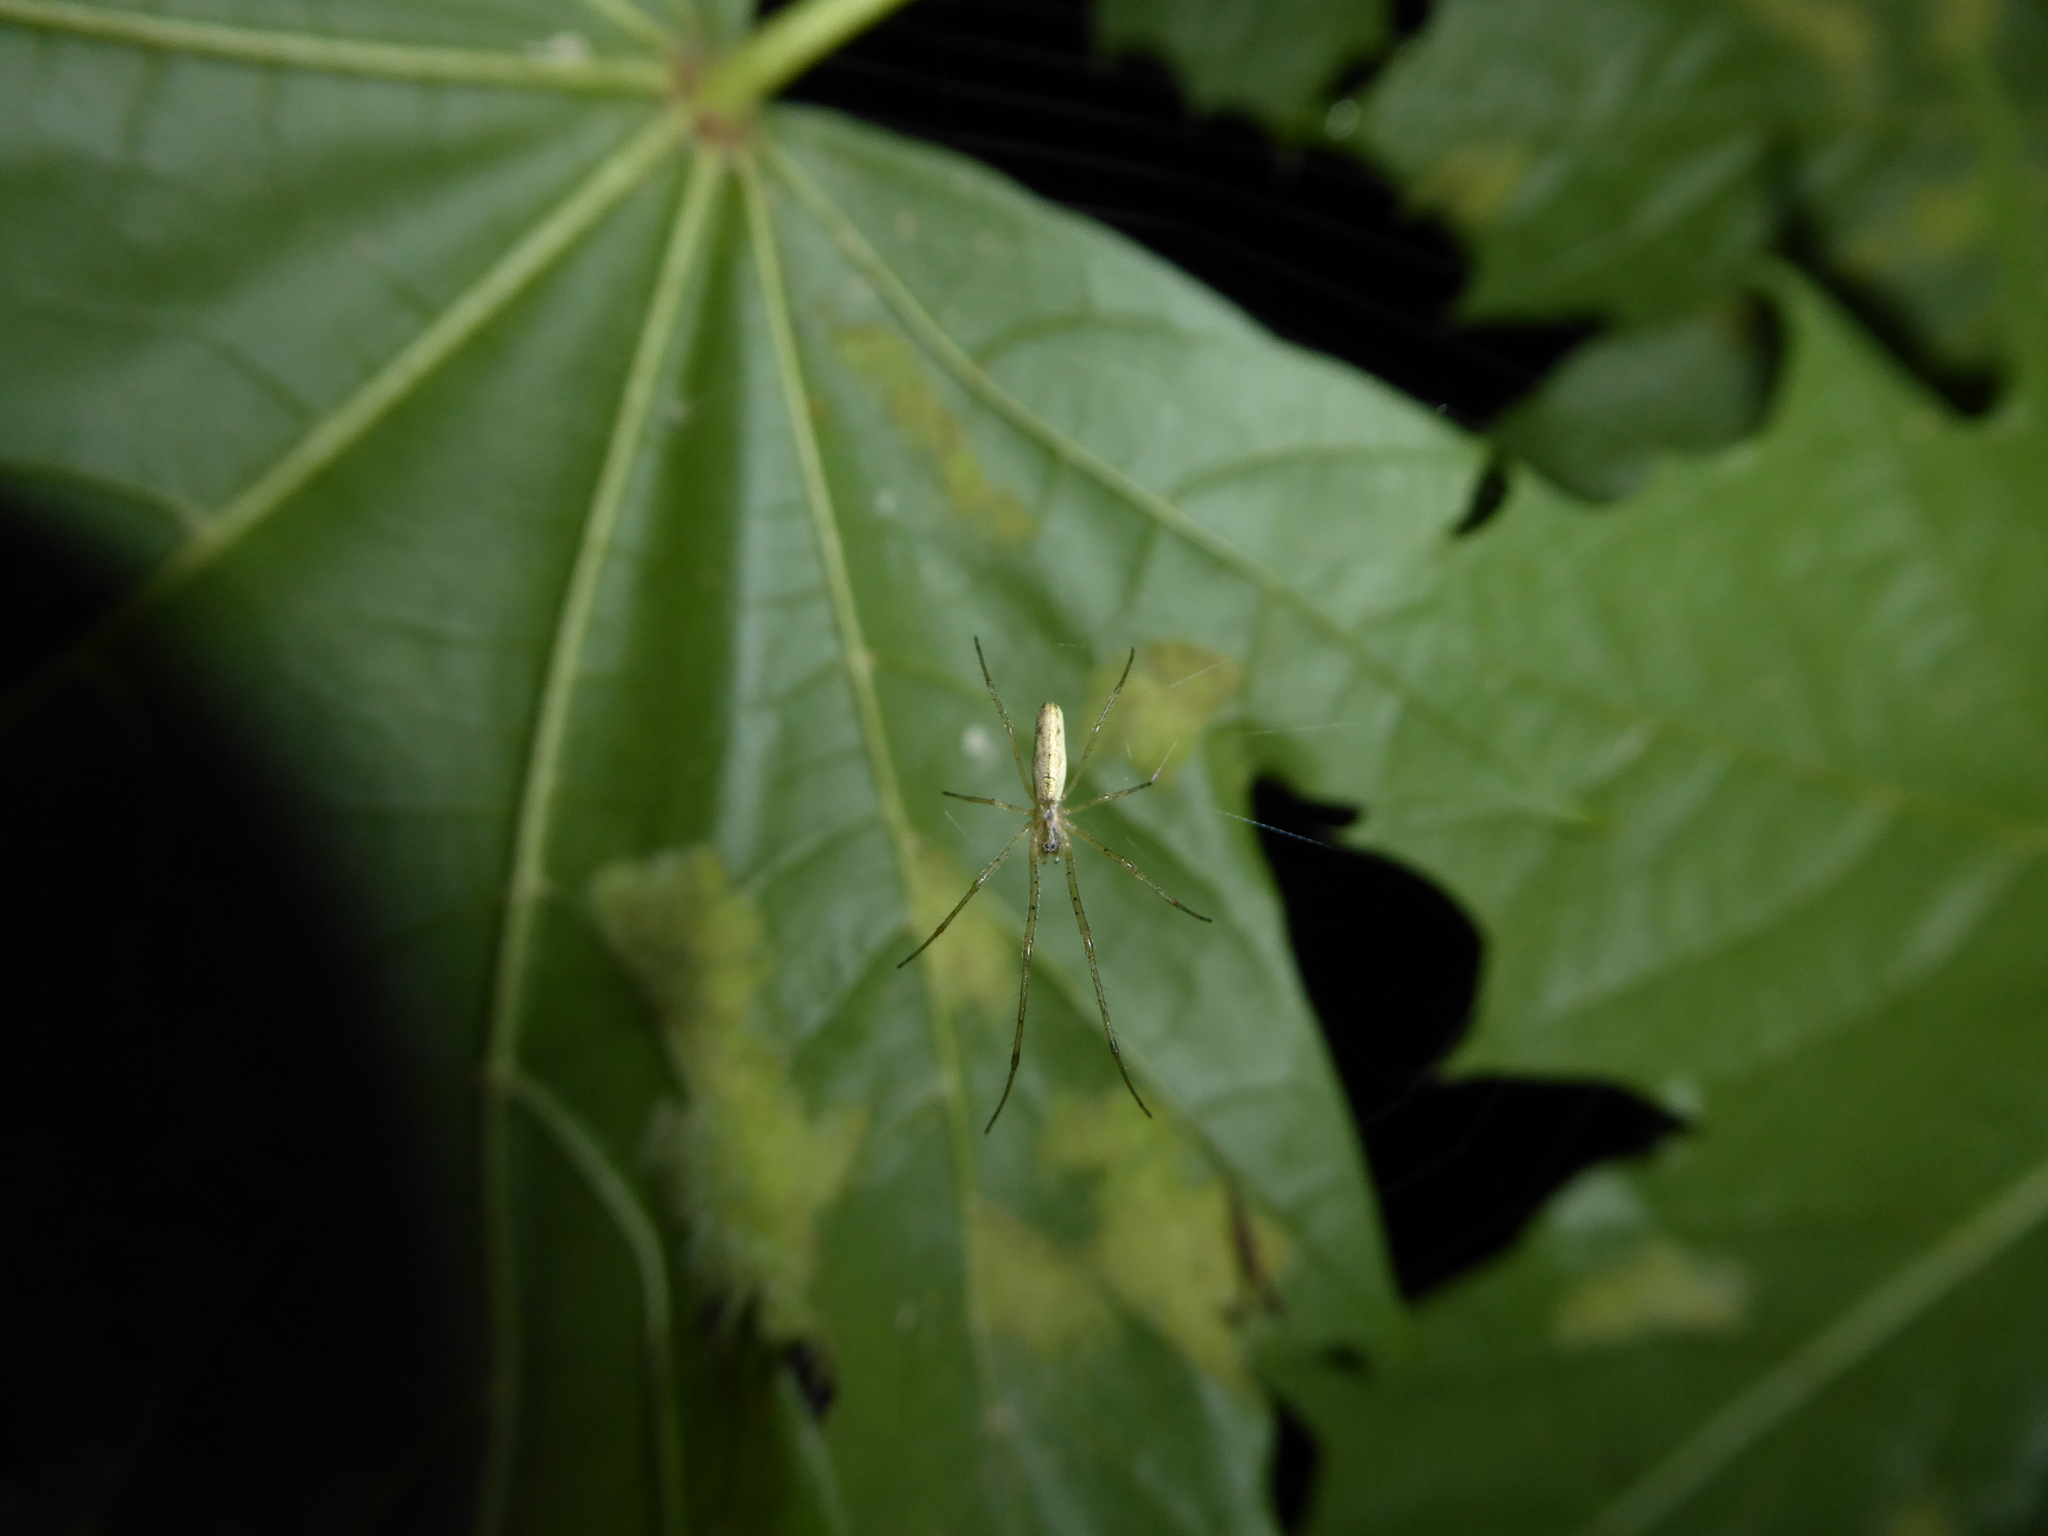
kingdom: Animalia
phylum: Arthropoda
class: Arachnida
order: Araneae
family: Tetragnathidae
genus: Tetragnatha
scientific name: Tetragnatha
